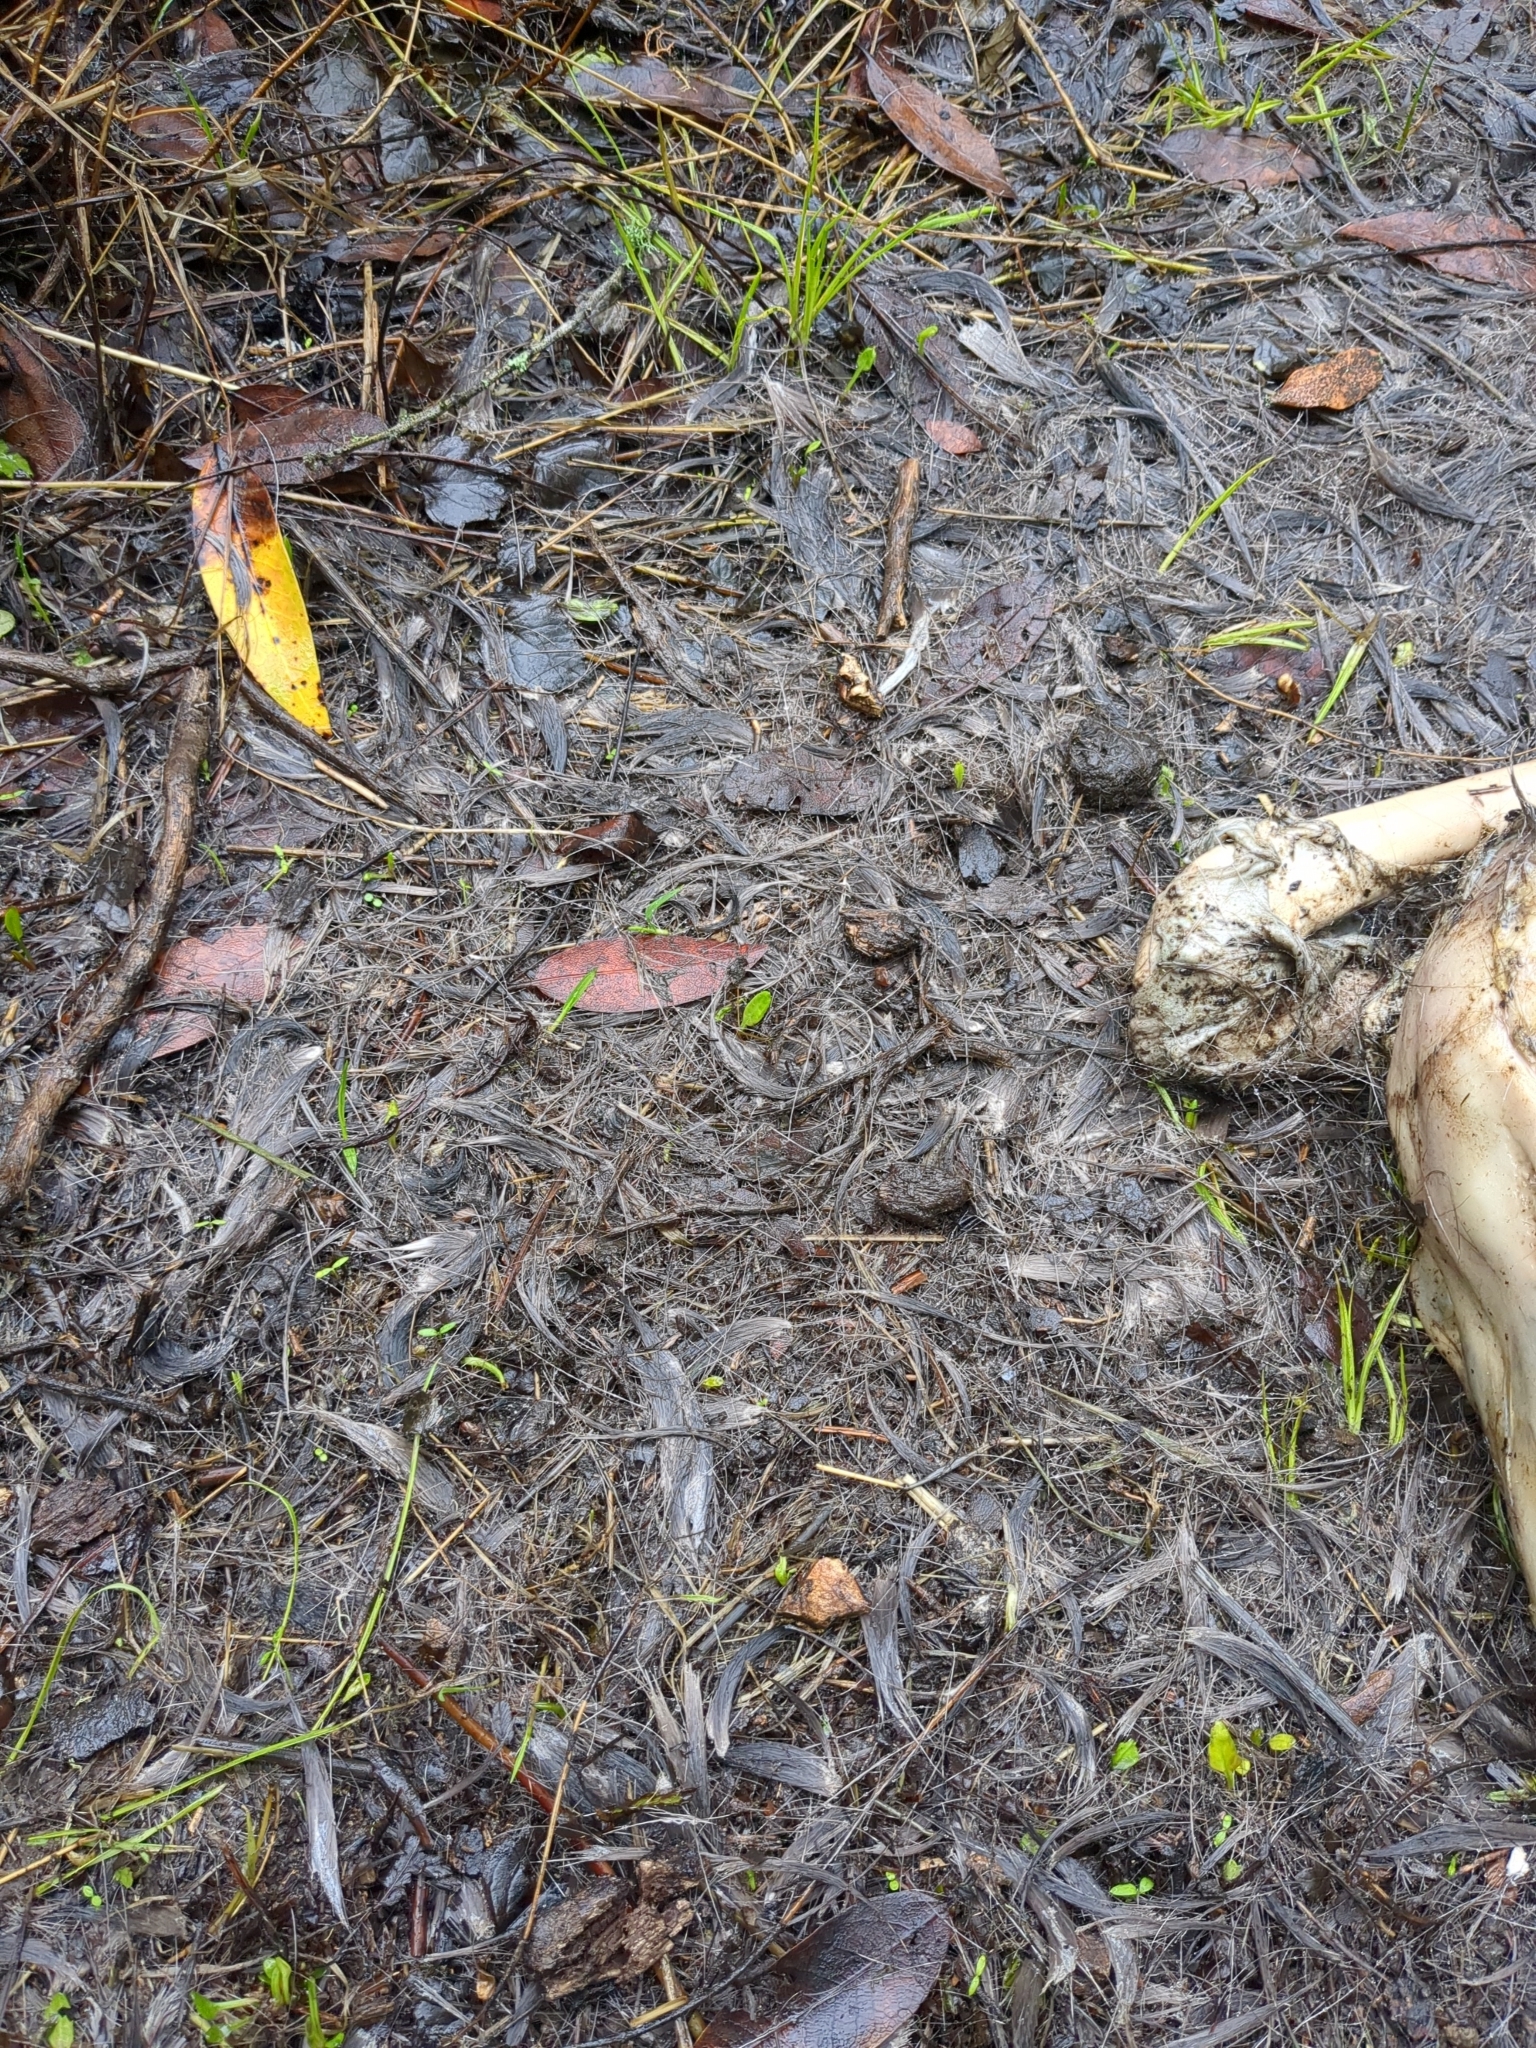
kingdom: Animalia
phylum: Chordata
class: Mammalia
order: Artiodactyla
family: Cervidae
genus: Odocoileus
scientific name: Odocoileus hemionus
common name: Mule deer
